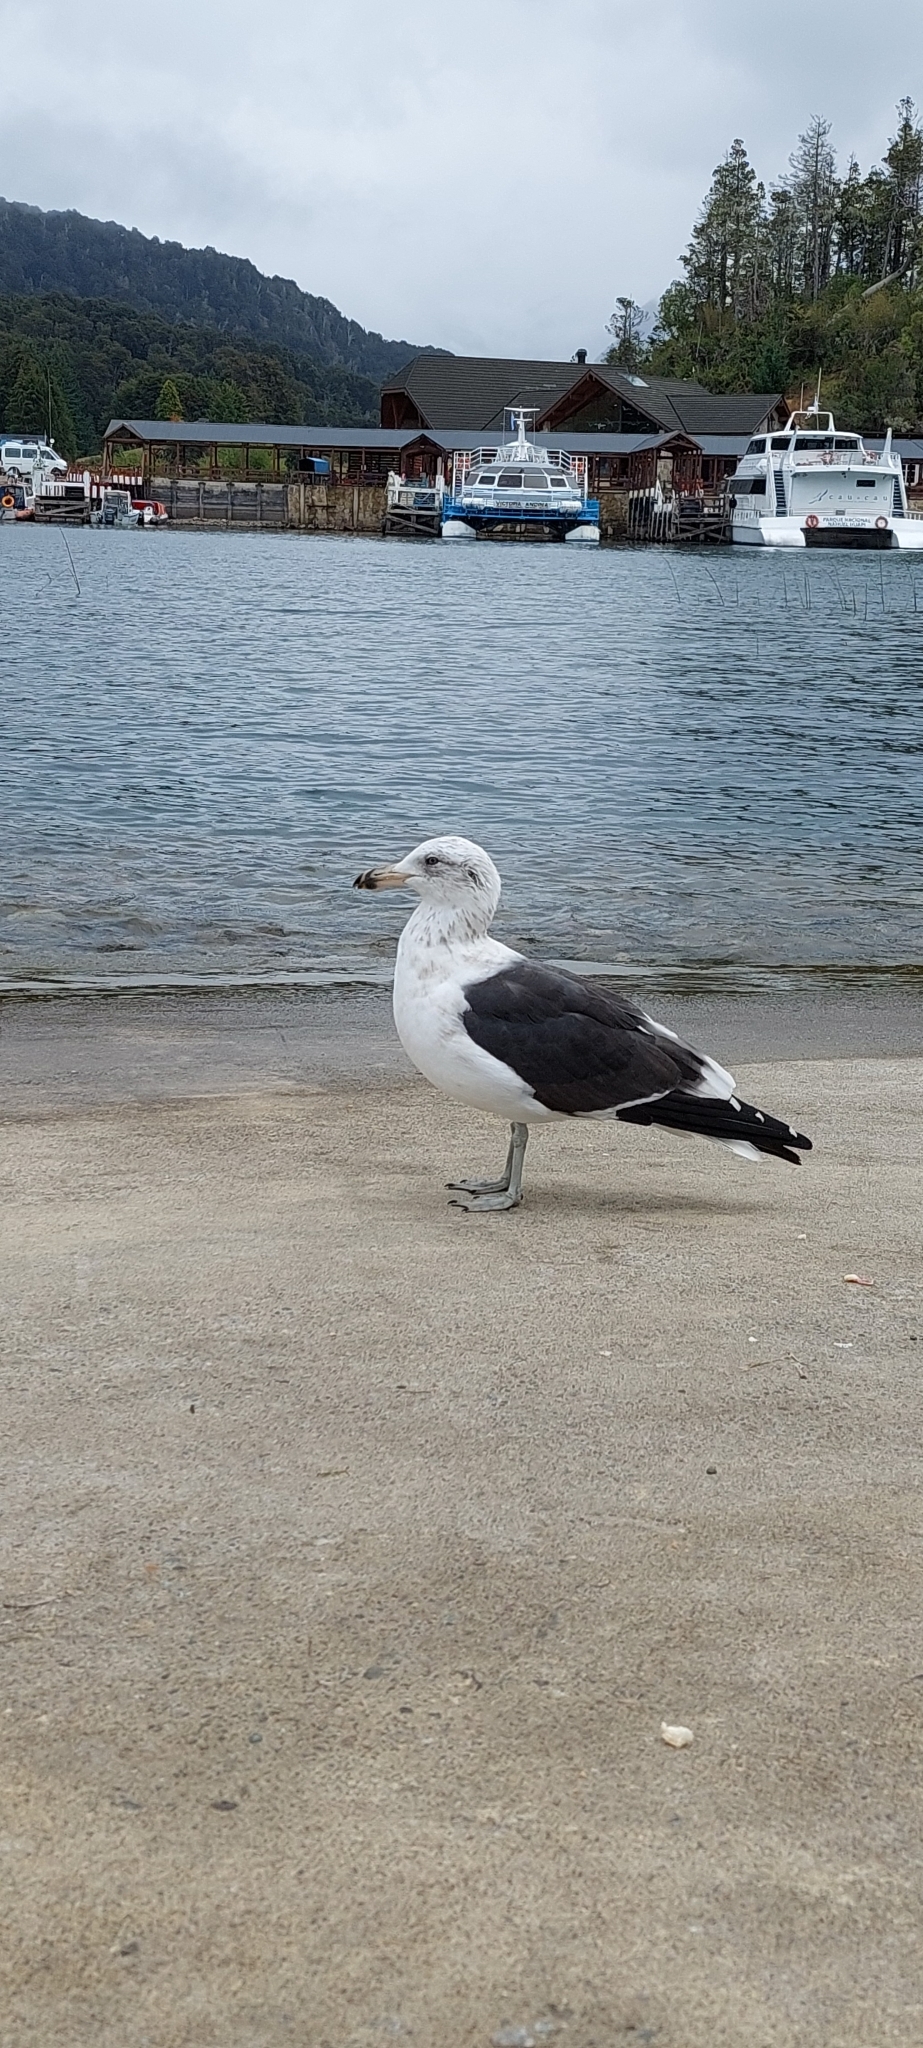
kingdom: Animalia
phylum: Chordata
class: Aves
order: Charadriiformes
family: Laridae
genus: Larus
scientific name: Larus dominicanus
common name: Kelp gull
